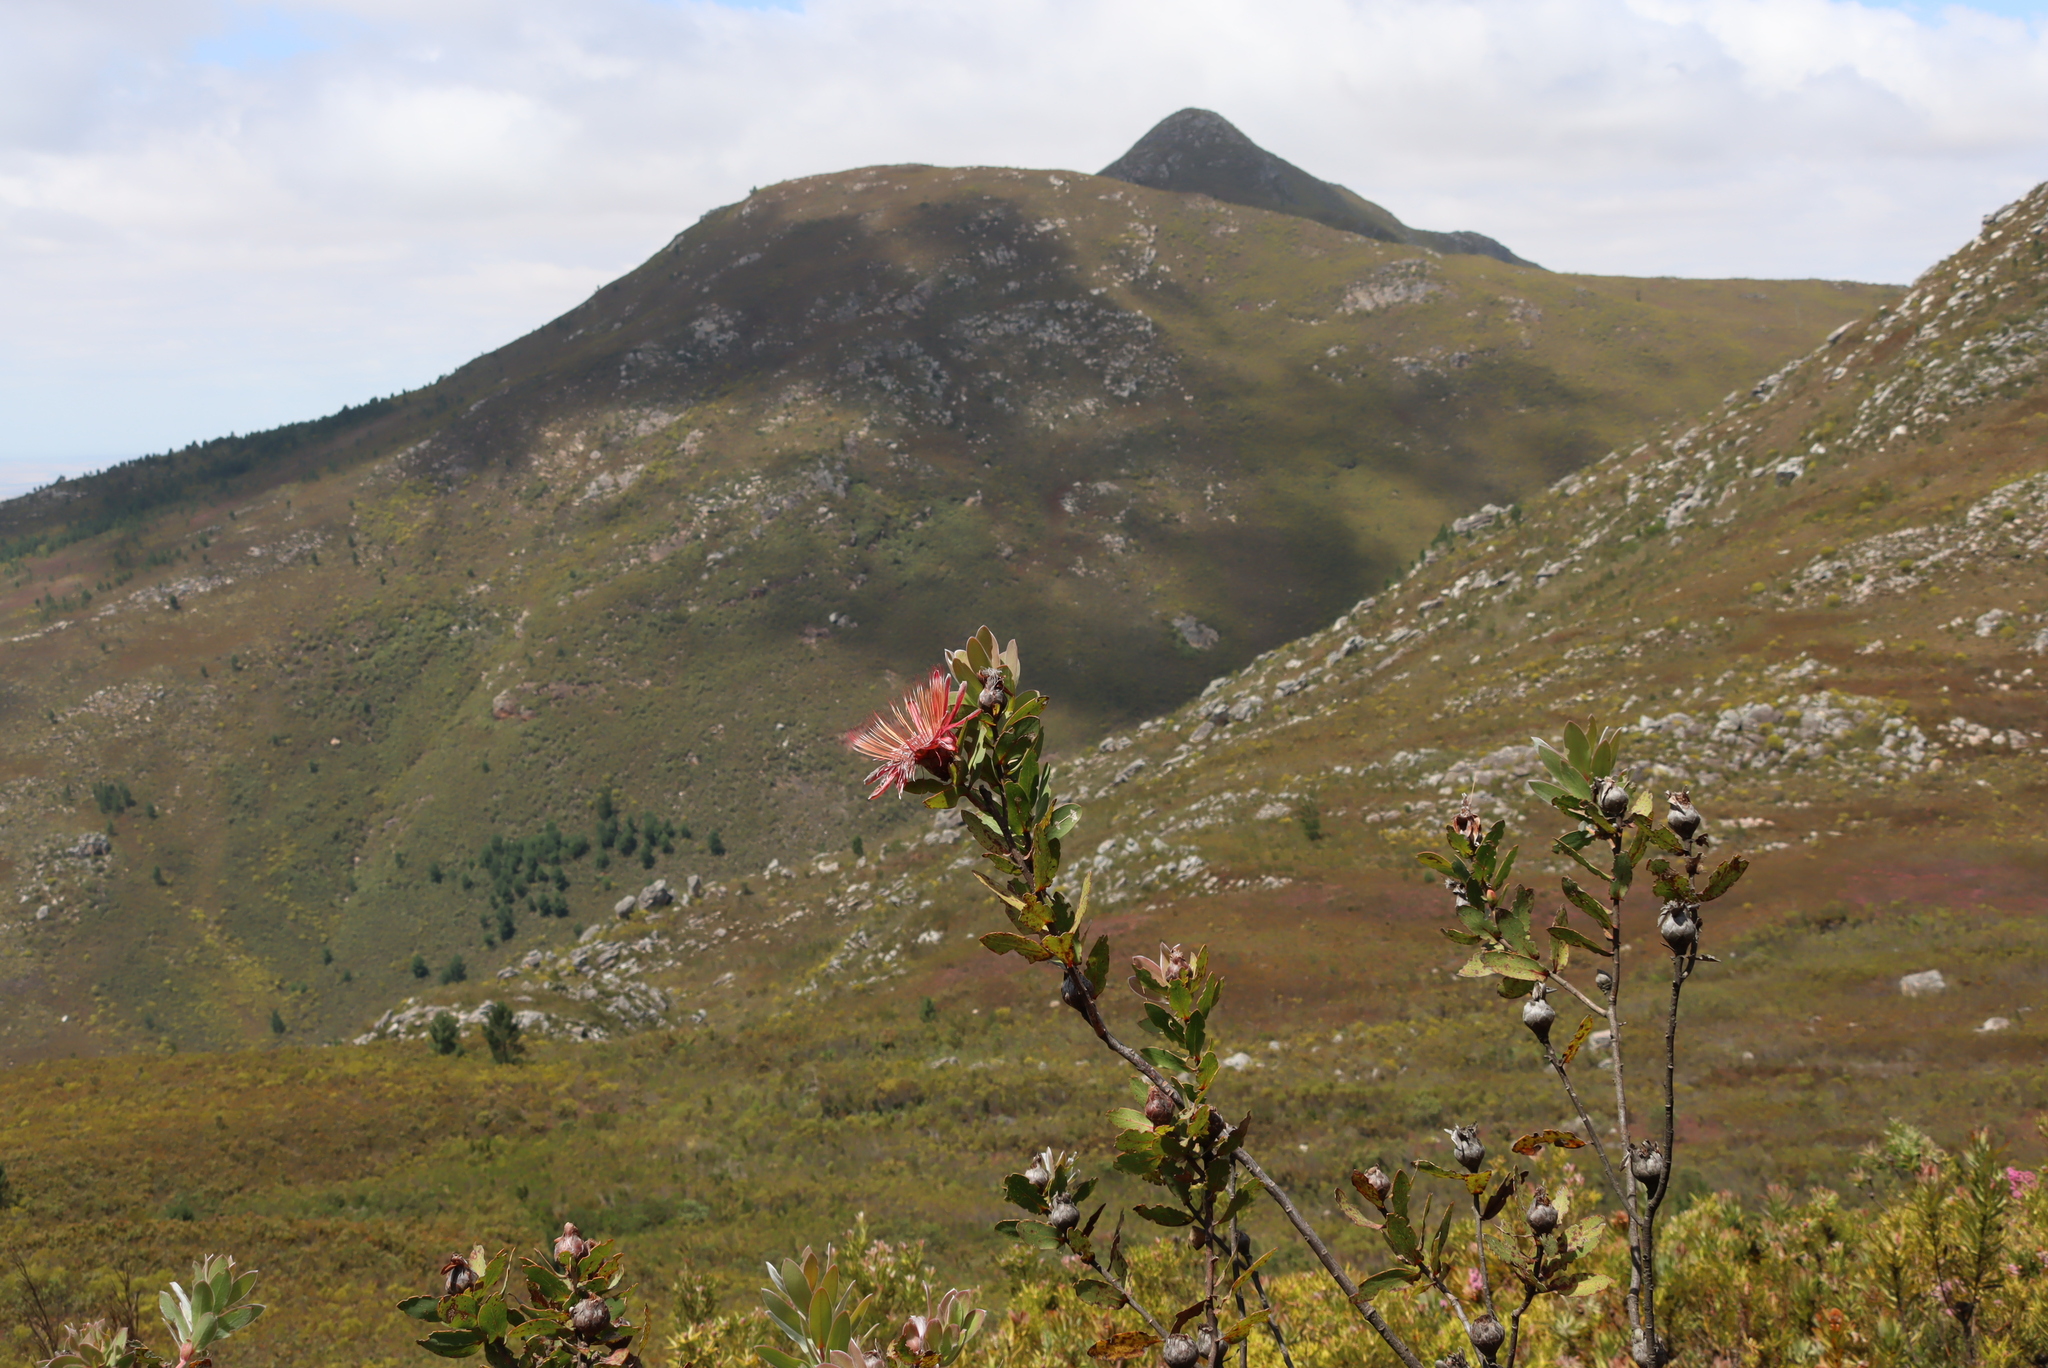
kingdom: Plantae
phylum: Tracheophyta
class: Magnoliopsida
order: Proteales
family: Proteaceae
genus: Protea
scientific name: Protea aurea
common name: Shuttlecock sugarbush
